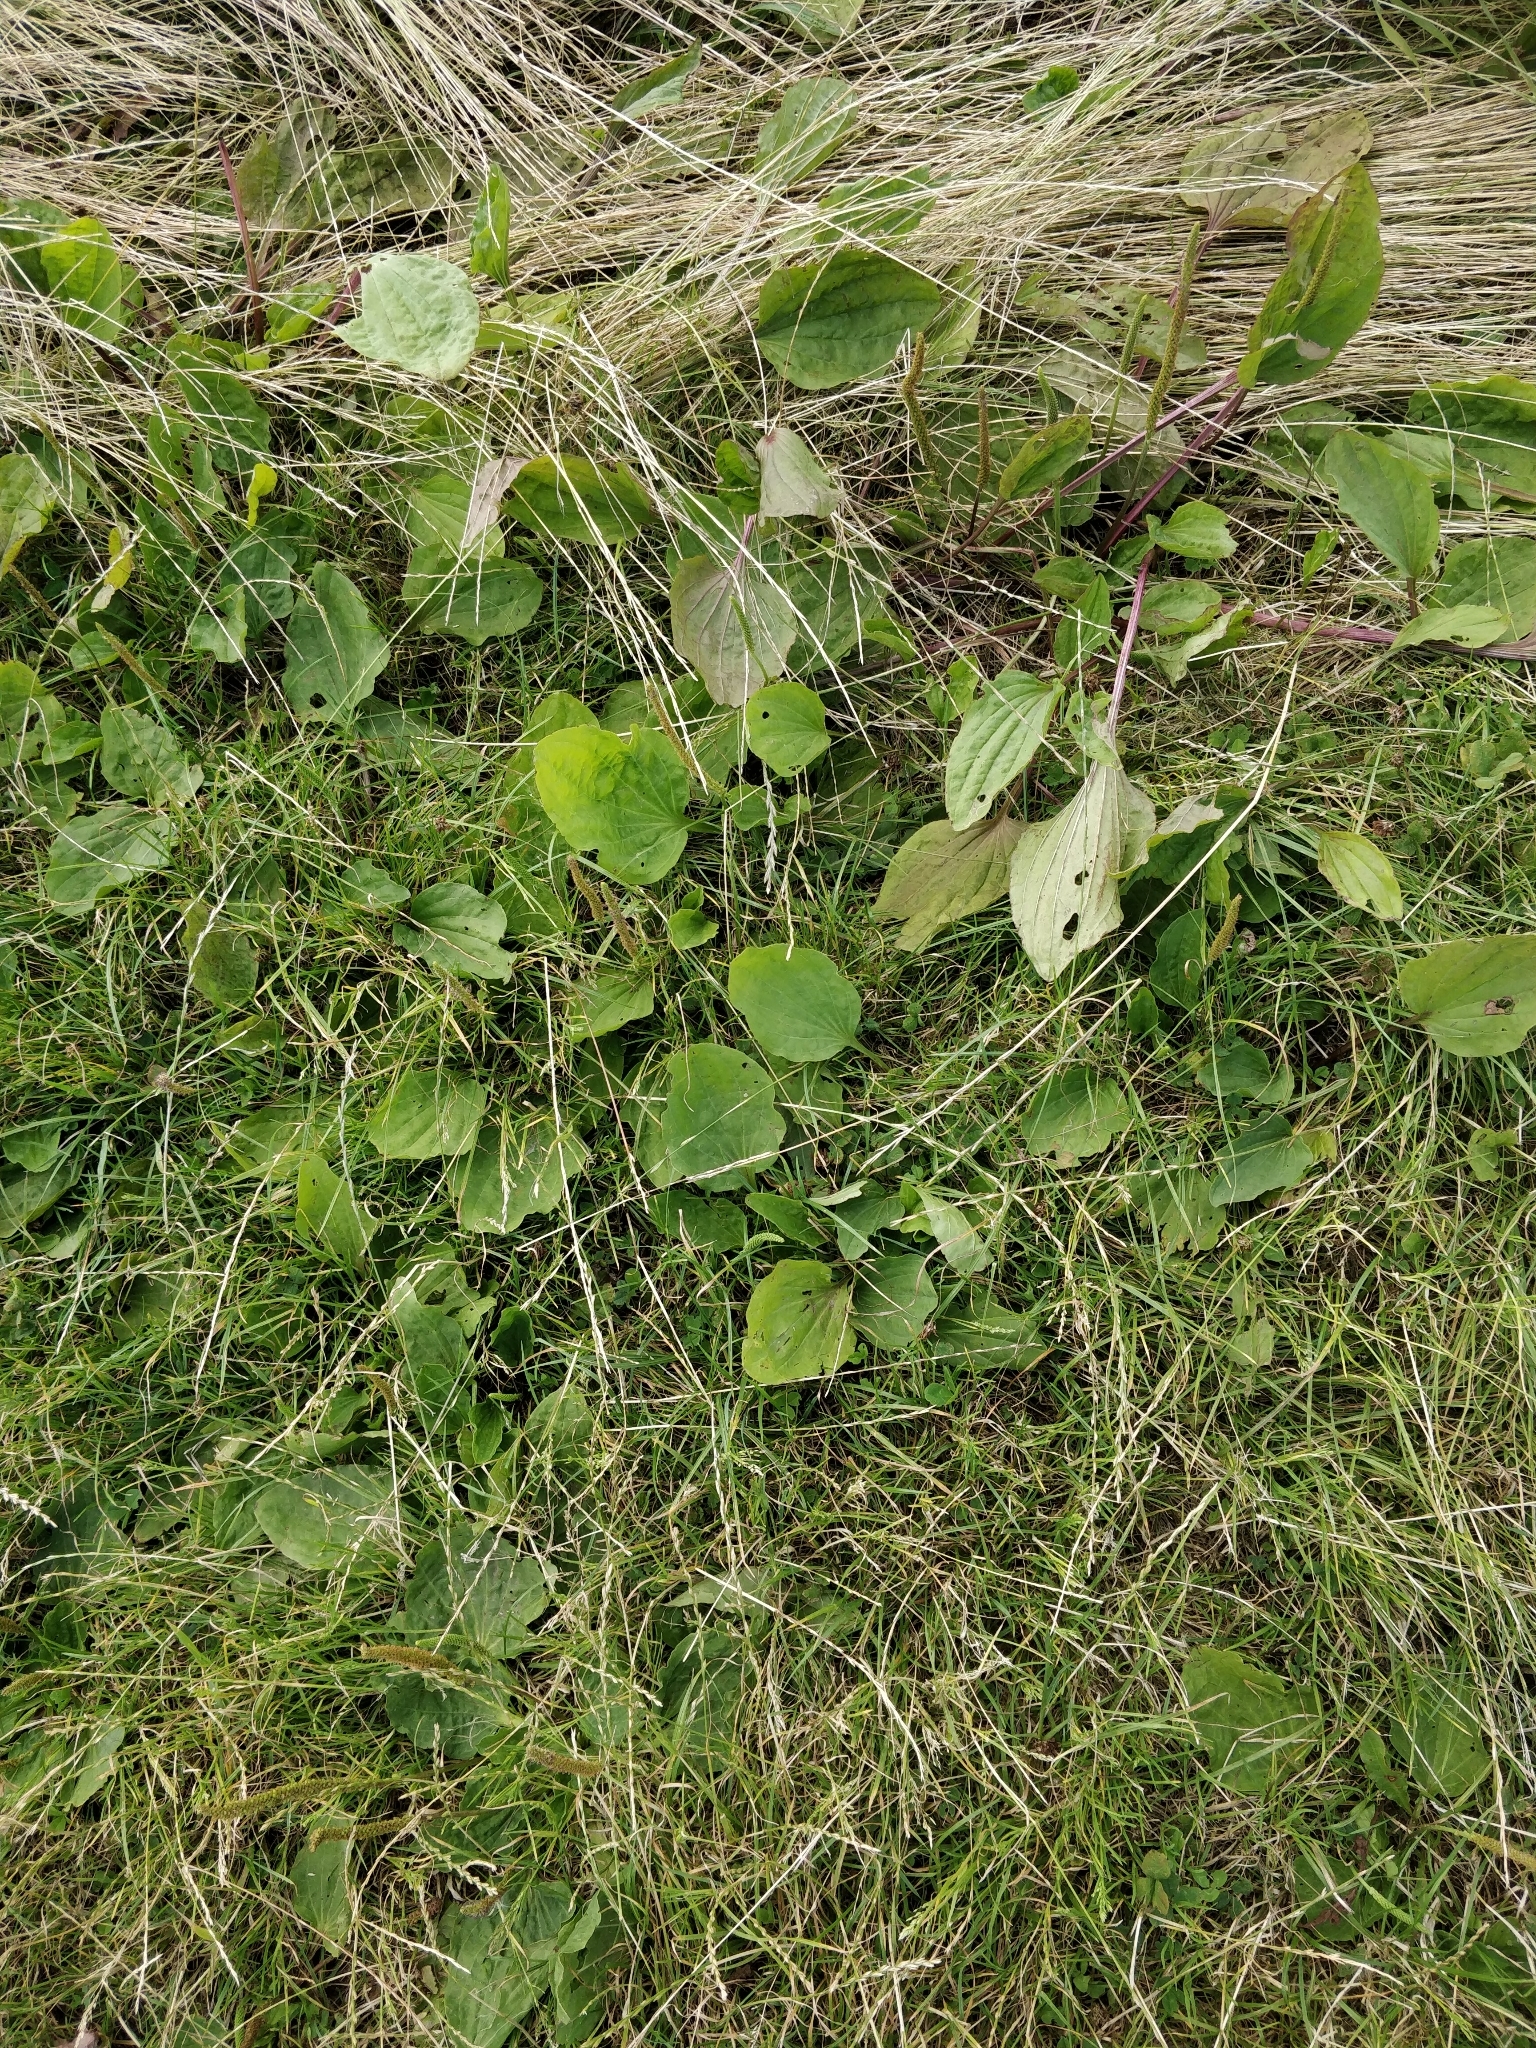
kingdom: Plantae
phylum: Tracheophyta
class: Magnoliopsida
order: Lamiales
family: Plantaginaceae
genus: Plantago
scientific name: Plantago major
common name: Common plantain
